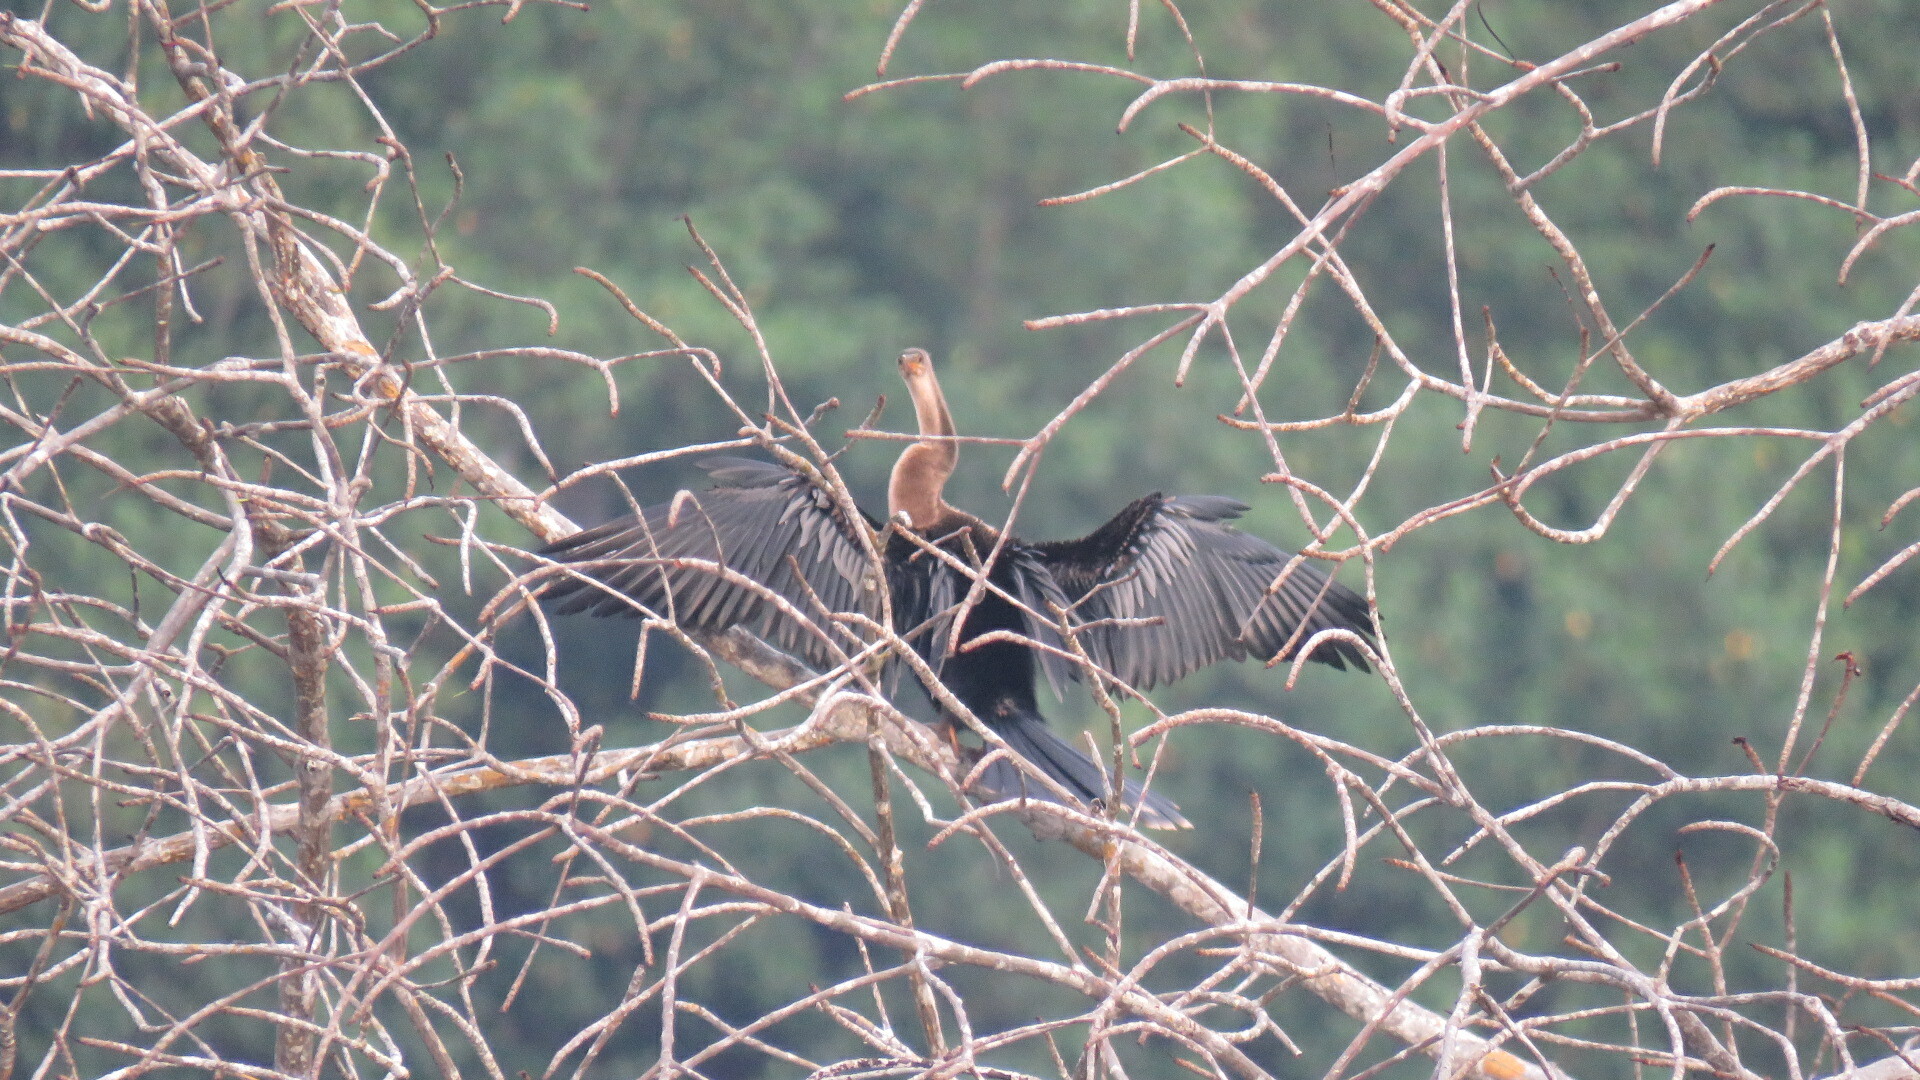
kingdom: Animalia
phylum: Chordata
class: Aves
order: Suliformes
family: Anhingidae
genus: Anhinga
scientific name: Anhinga anhinga
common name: Anhinga
